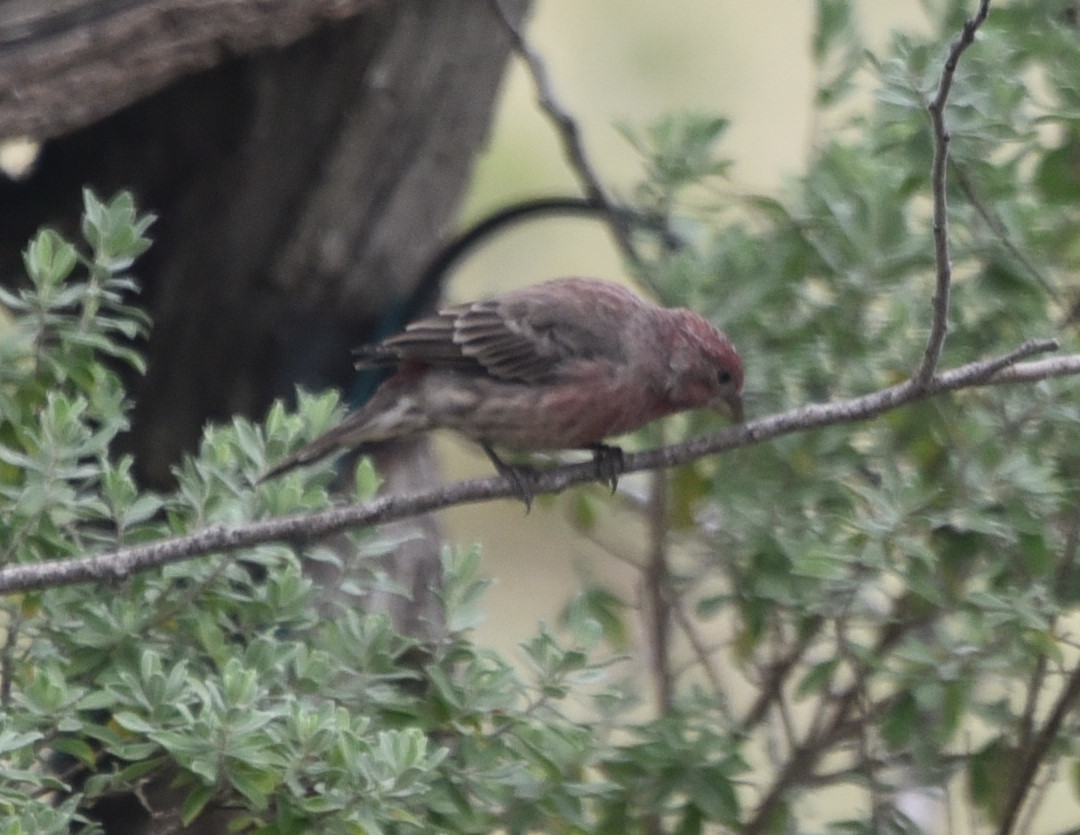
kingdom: Animalia
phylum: Chordata
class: Aves
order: Passeriformes
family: Fringillidae
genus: Haemorhous
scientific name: Haemorhous mexicanus
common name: House finch
